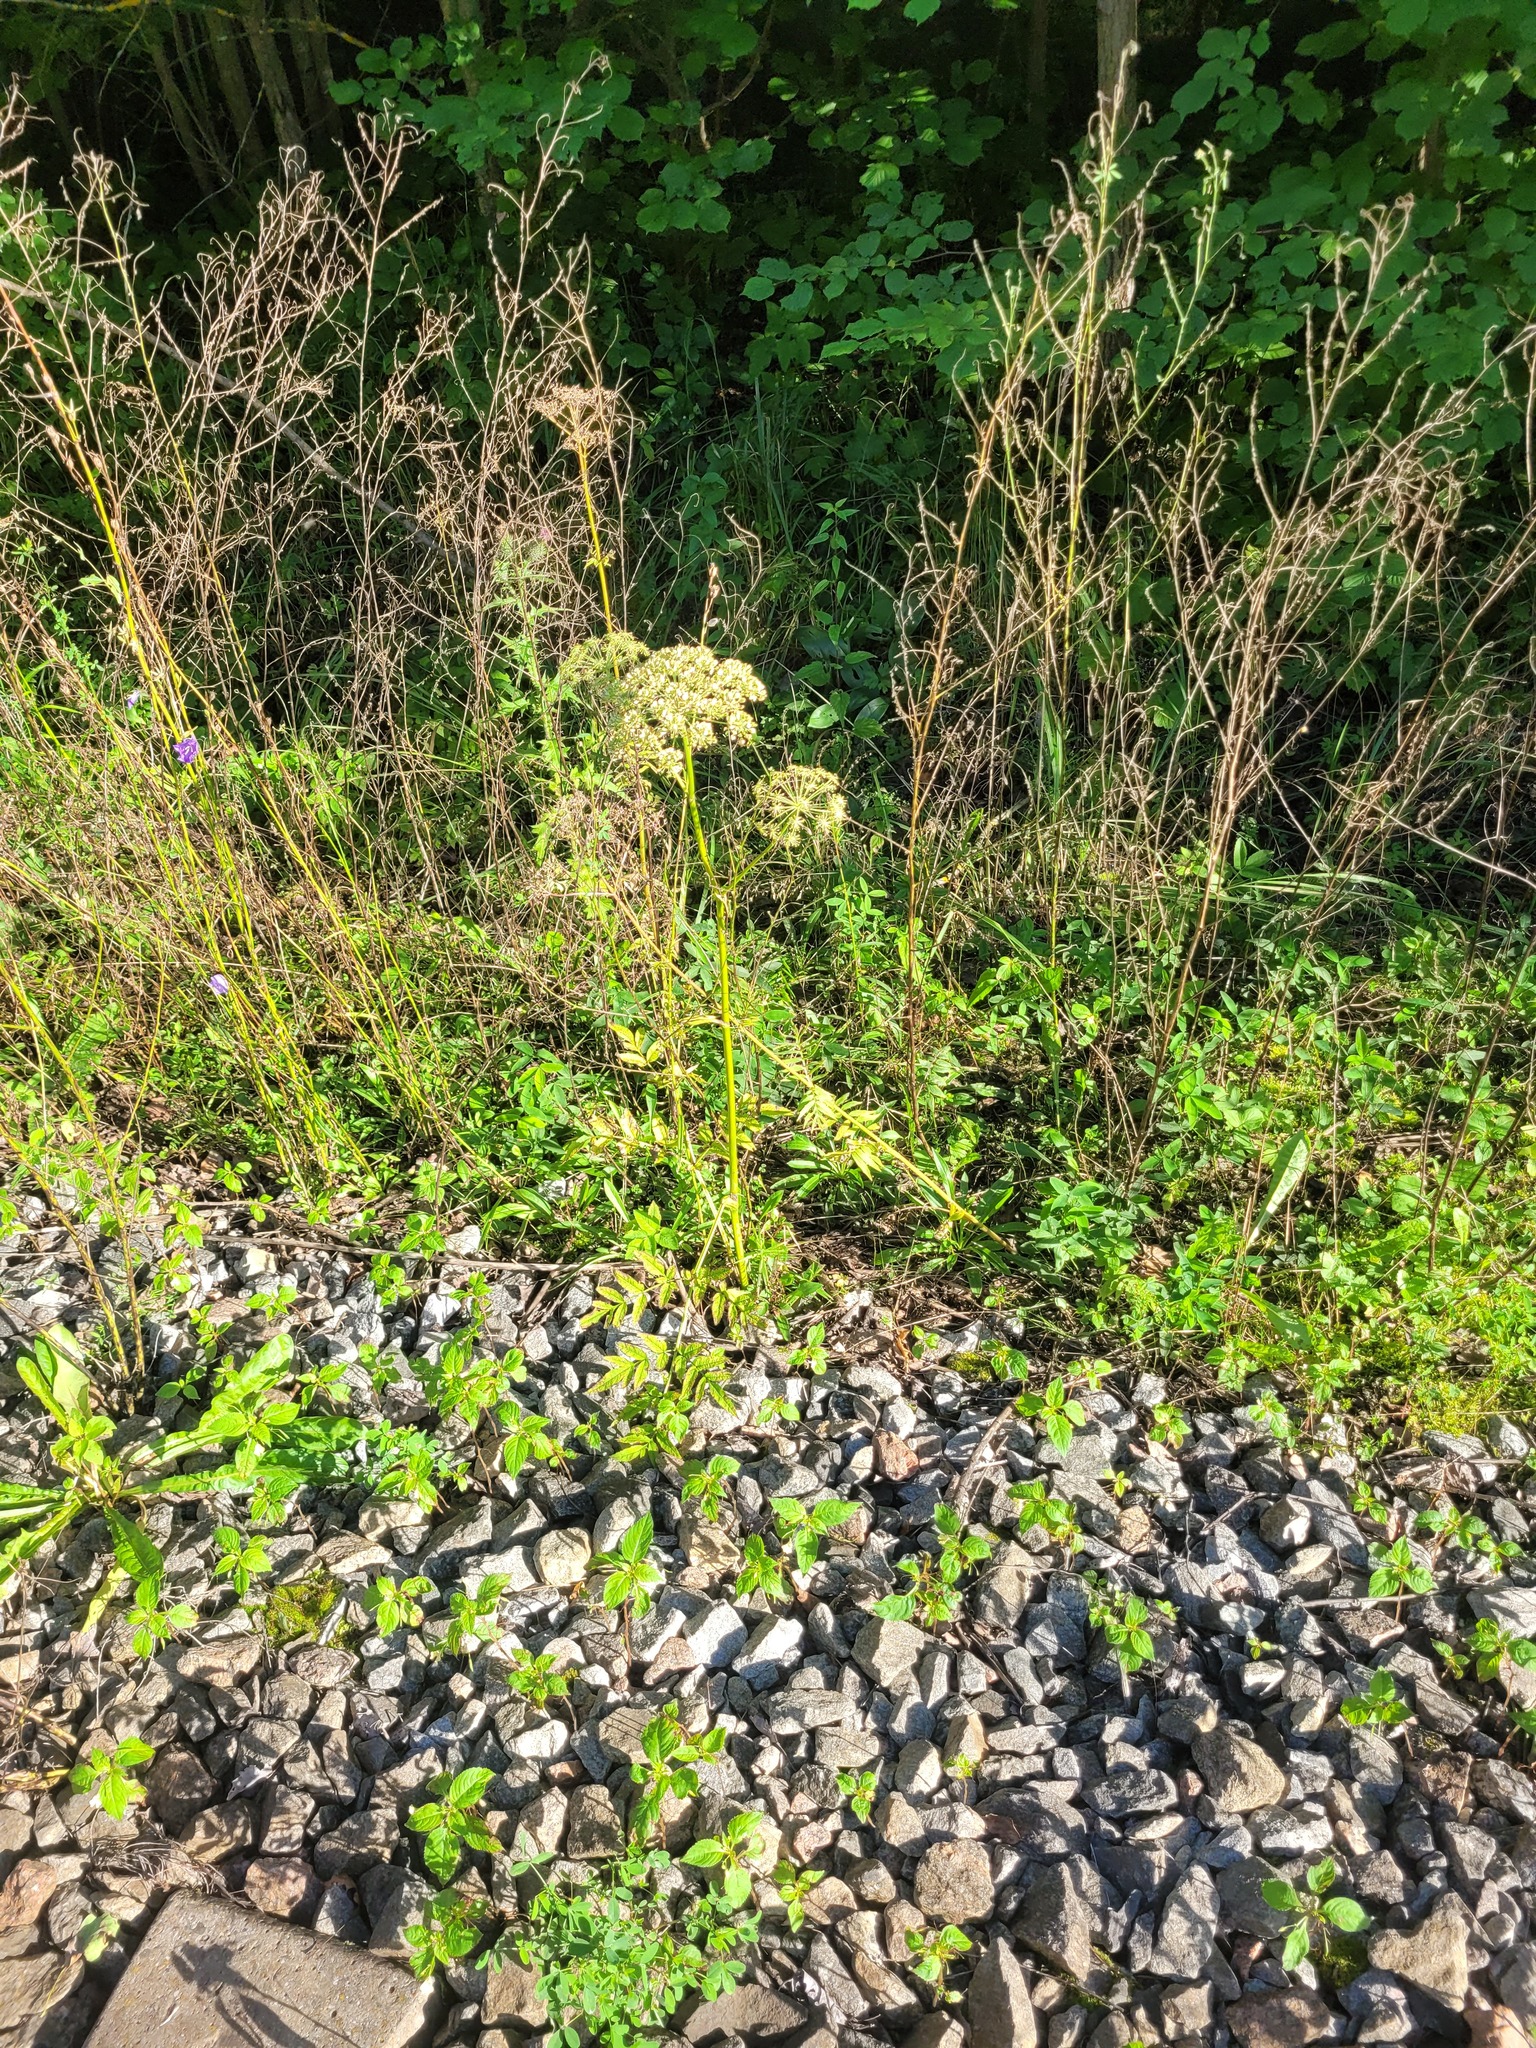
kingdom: Plantae
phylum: Tracheophyta
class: Magnoliopsida
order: Apiales
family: Apiaceae
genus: Angelica
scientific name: Angelica sylvestris
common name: Wild angelica
